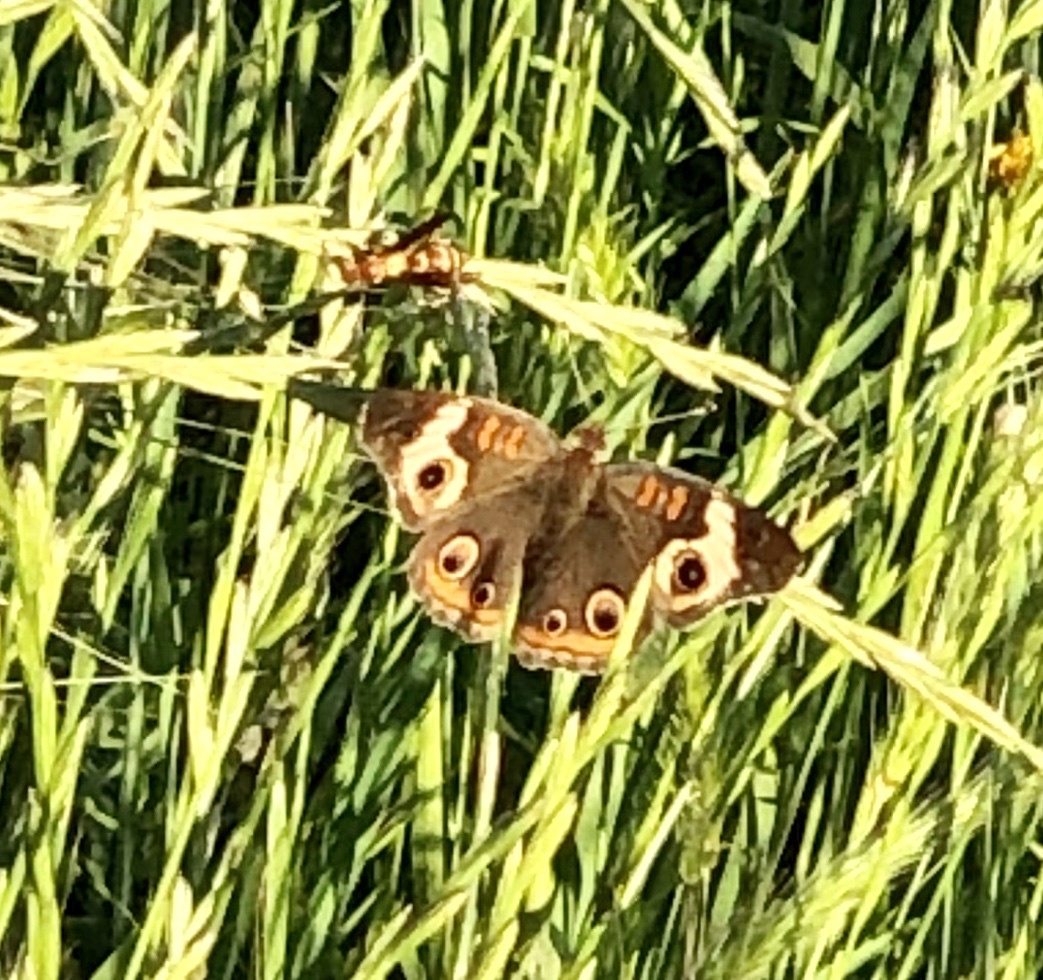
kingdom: Animalia
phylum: Arthropoda
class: Insecta
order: Lepidoptera
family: Nymphalidae
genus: Junonia
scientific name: Junonia coenia
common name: Common buckeye
